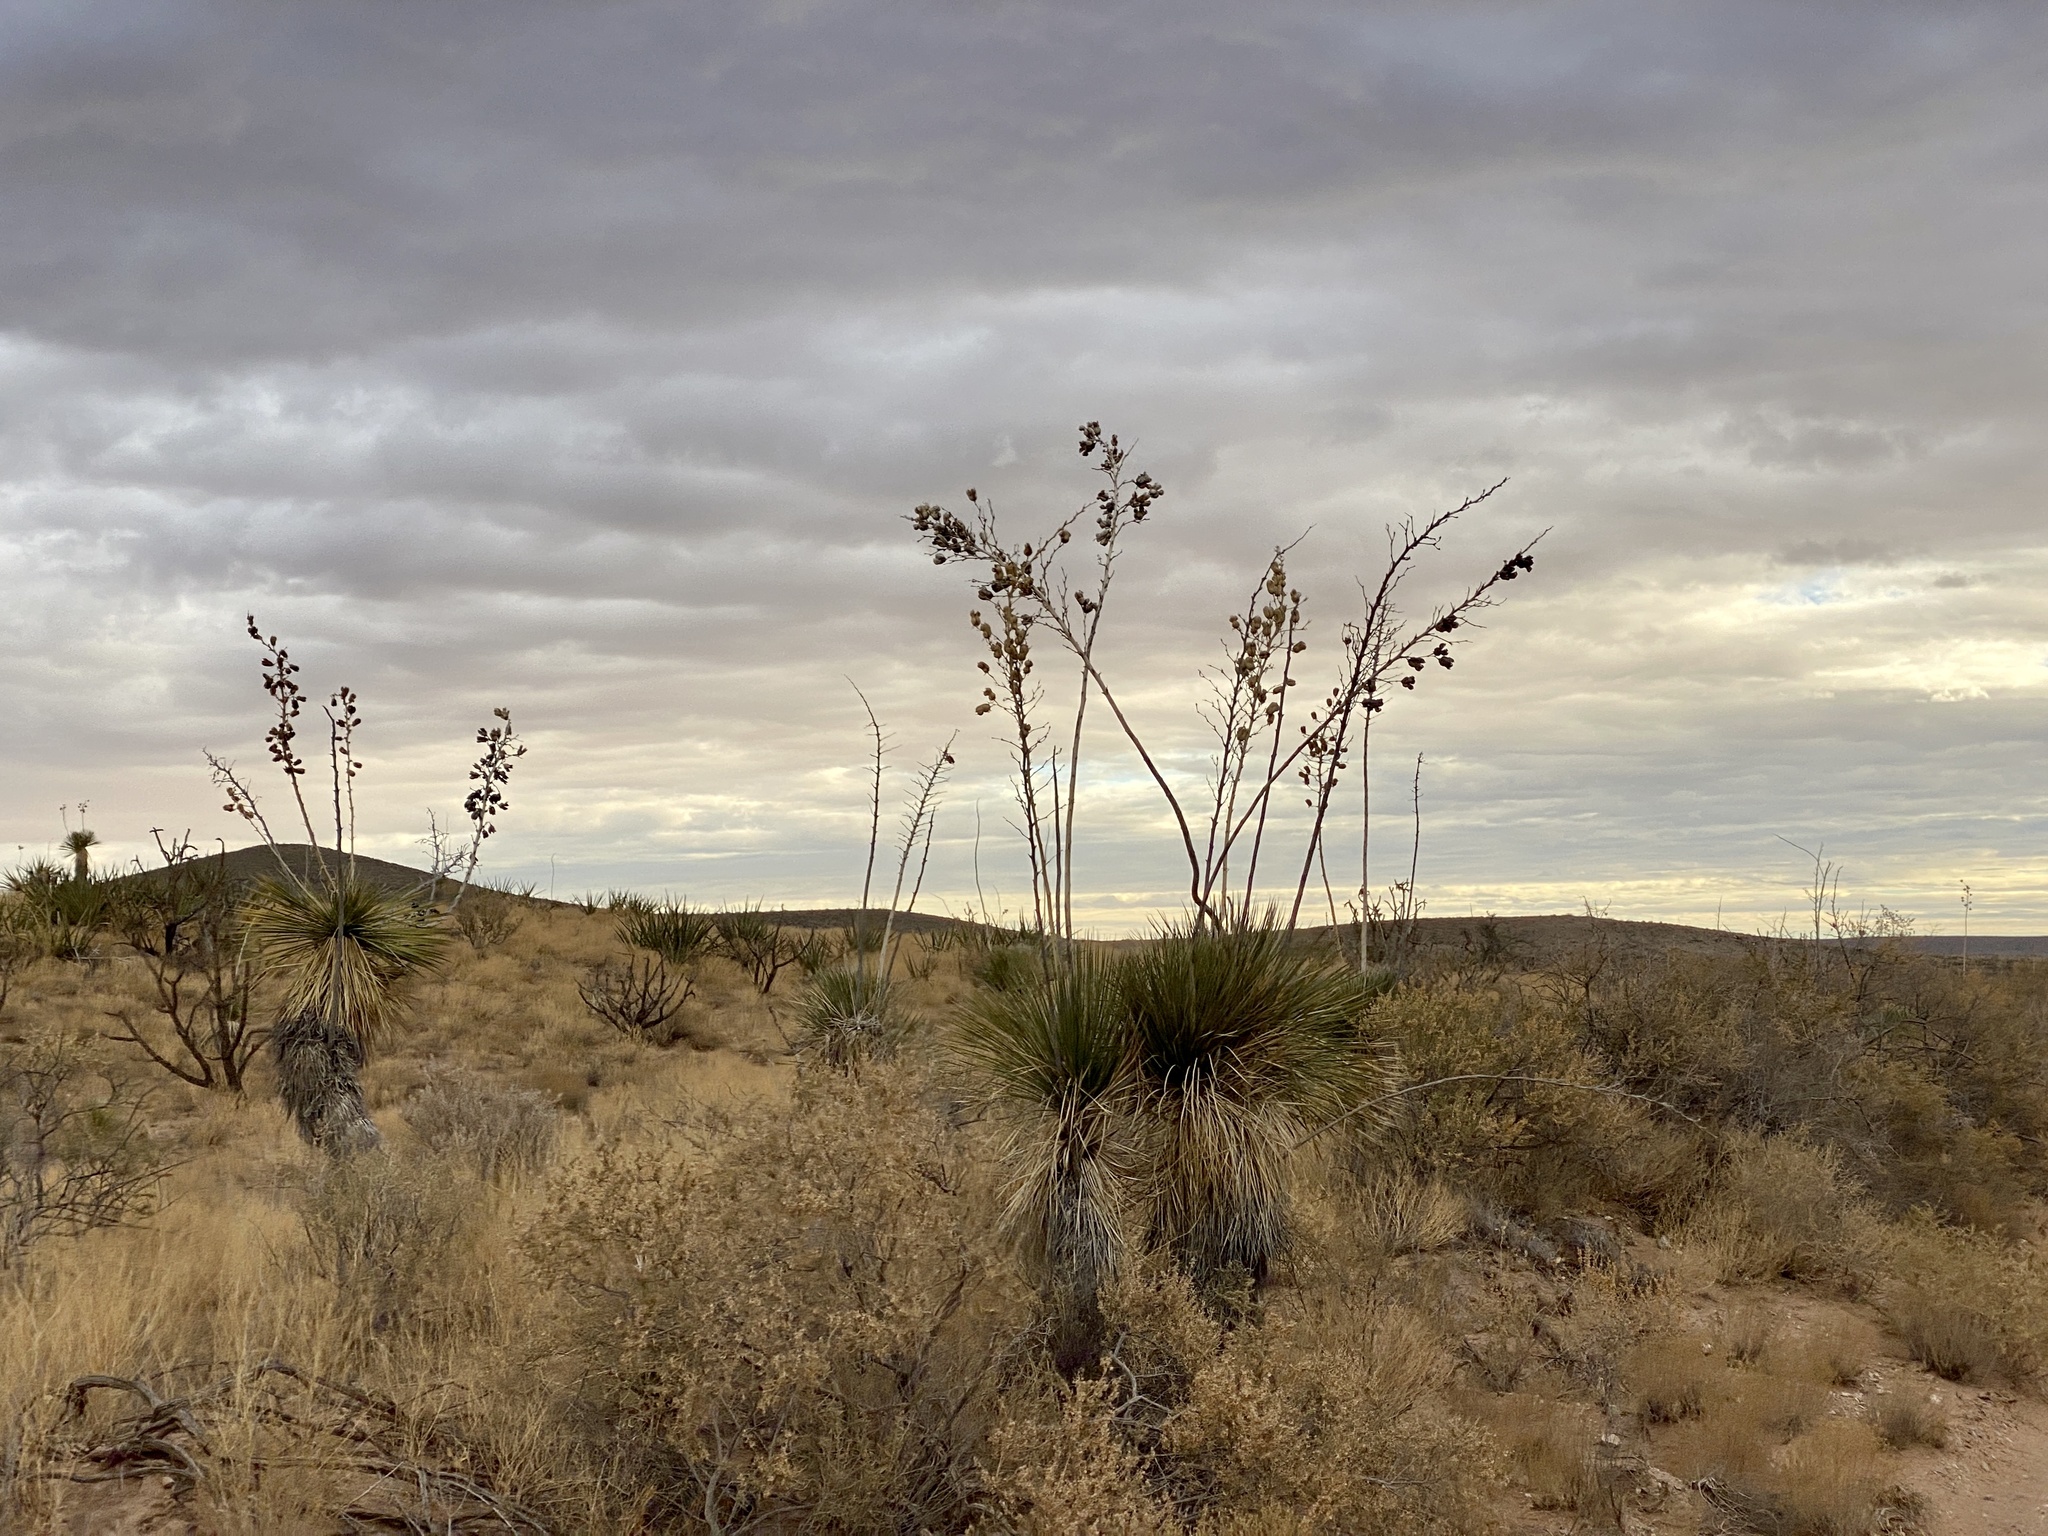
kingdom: Plantae
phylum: Tracheophyta
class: Liliopsida
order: Asparagales
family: Asparagaceae
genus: Yucca
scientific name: Yucca elata
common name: Palmella
